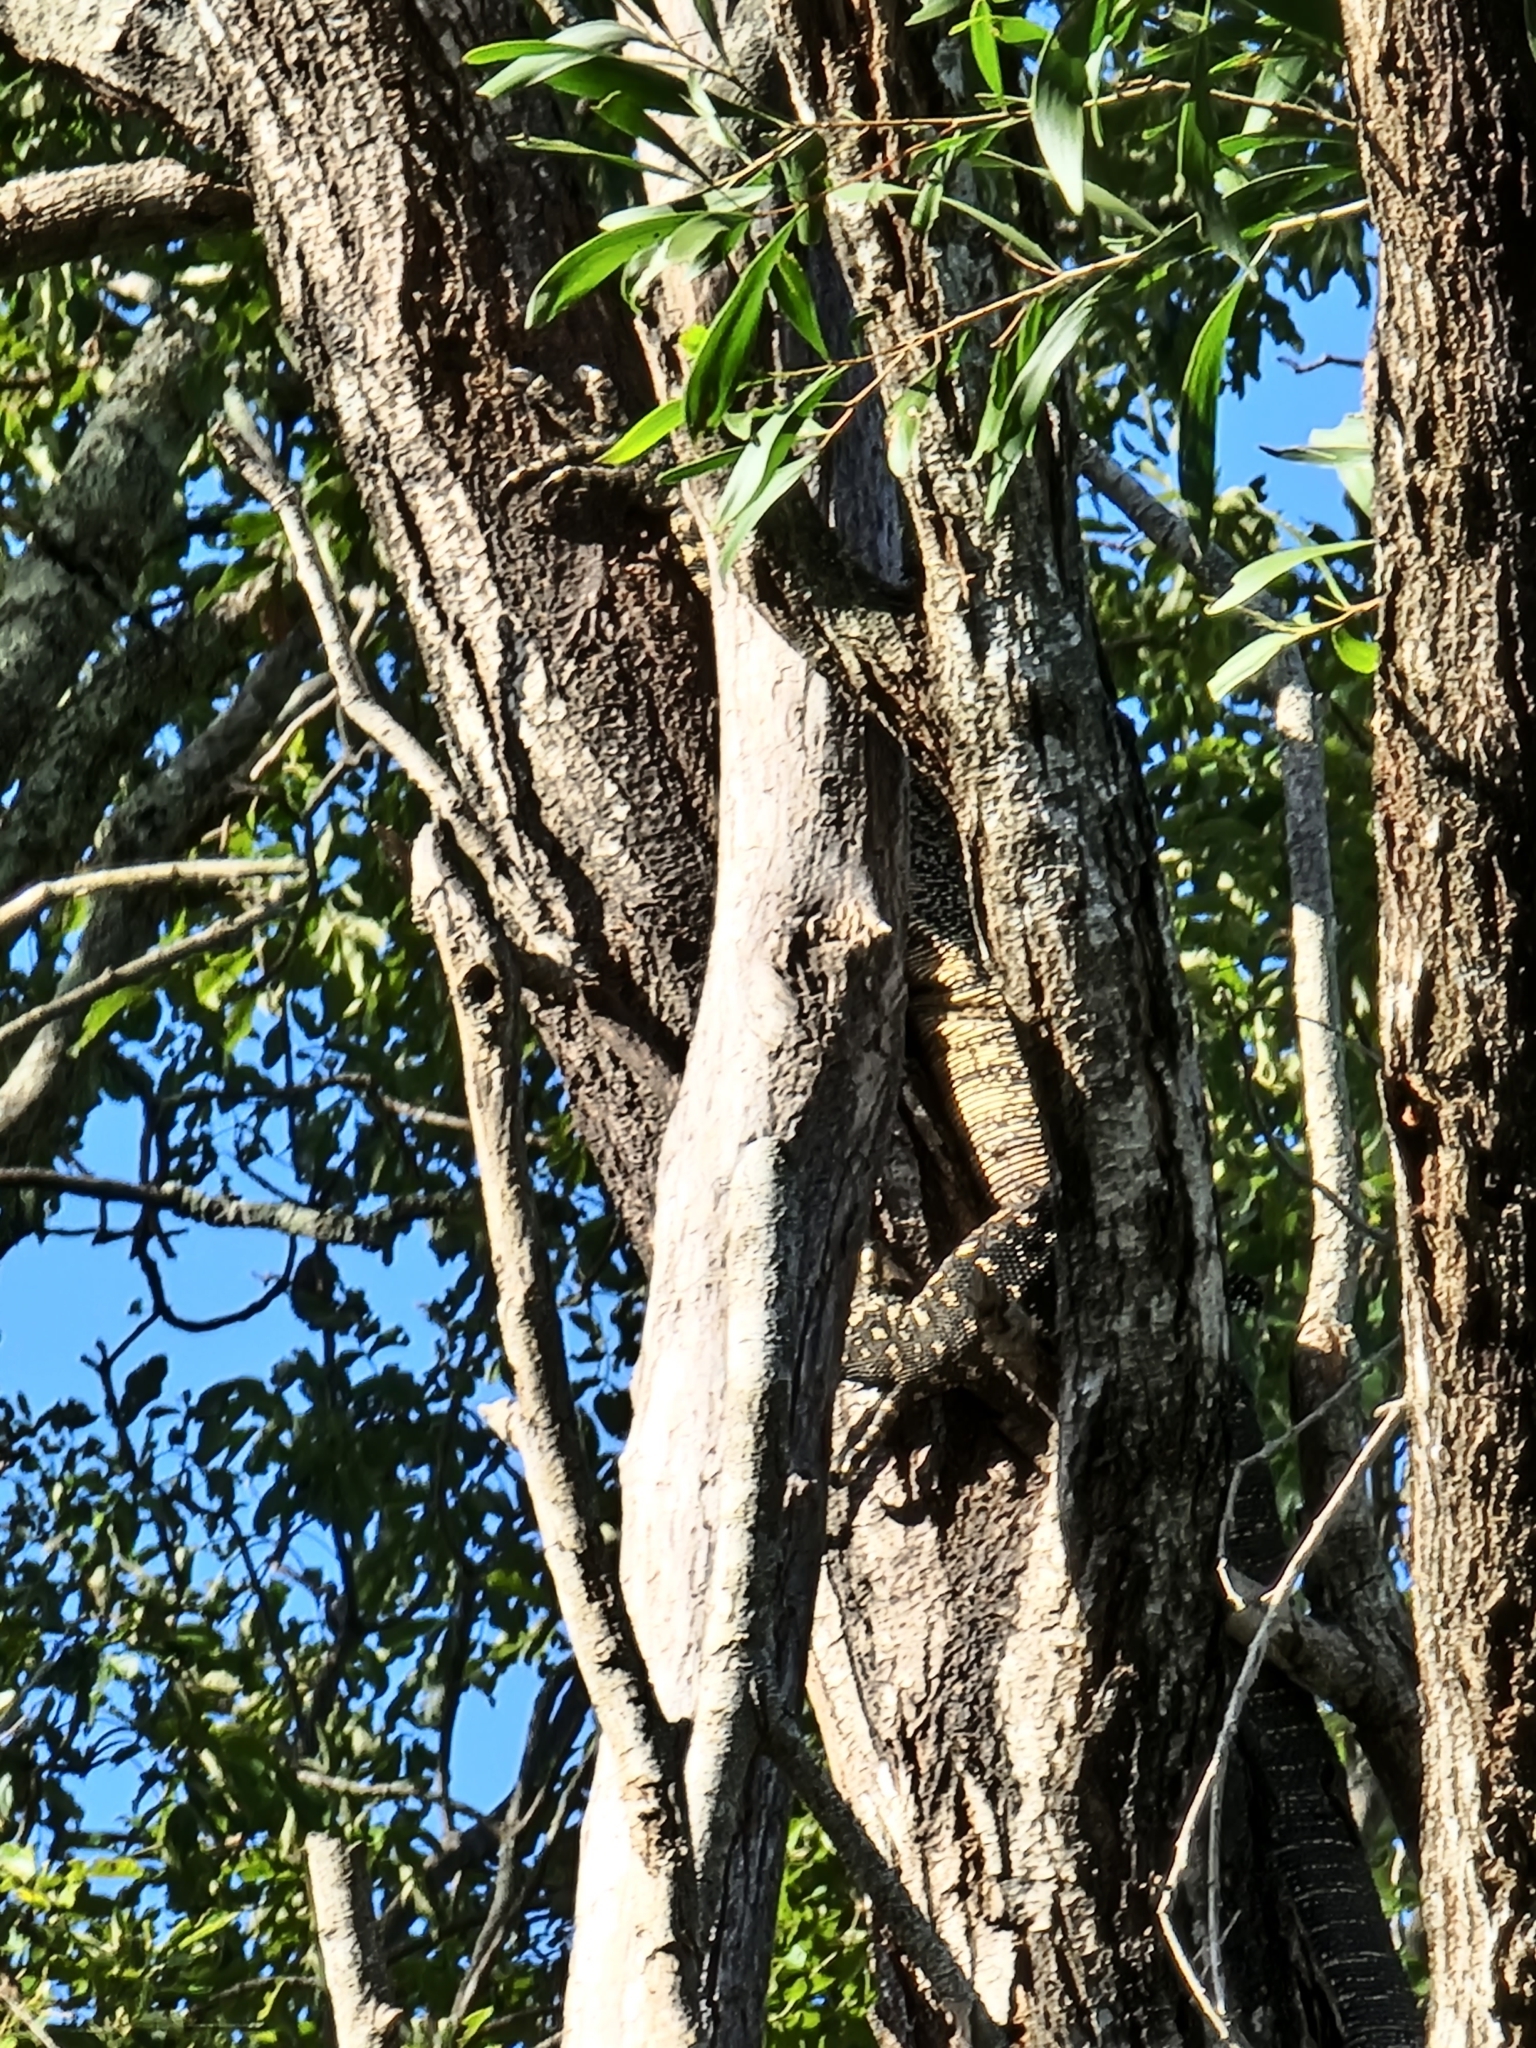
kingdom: Animalia
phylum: Chordata
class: Squamata
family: Varanidae
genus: Varanus
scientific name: Varanus varius
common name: Lace monitor
